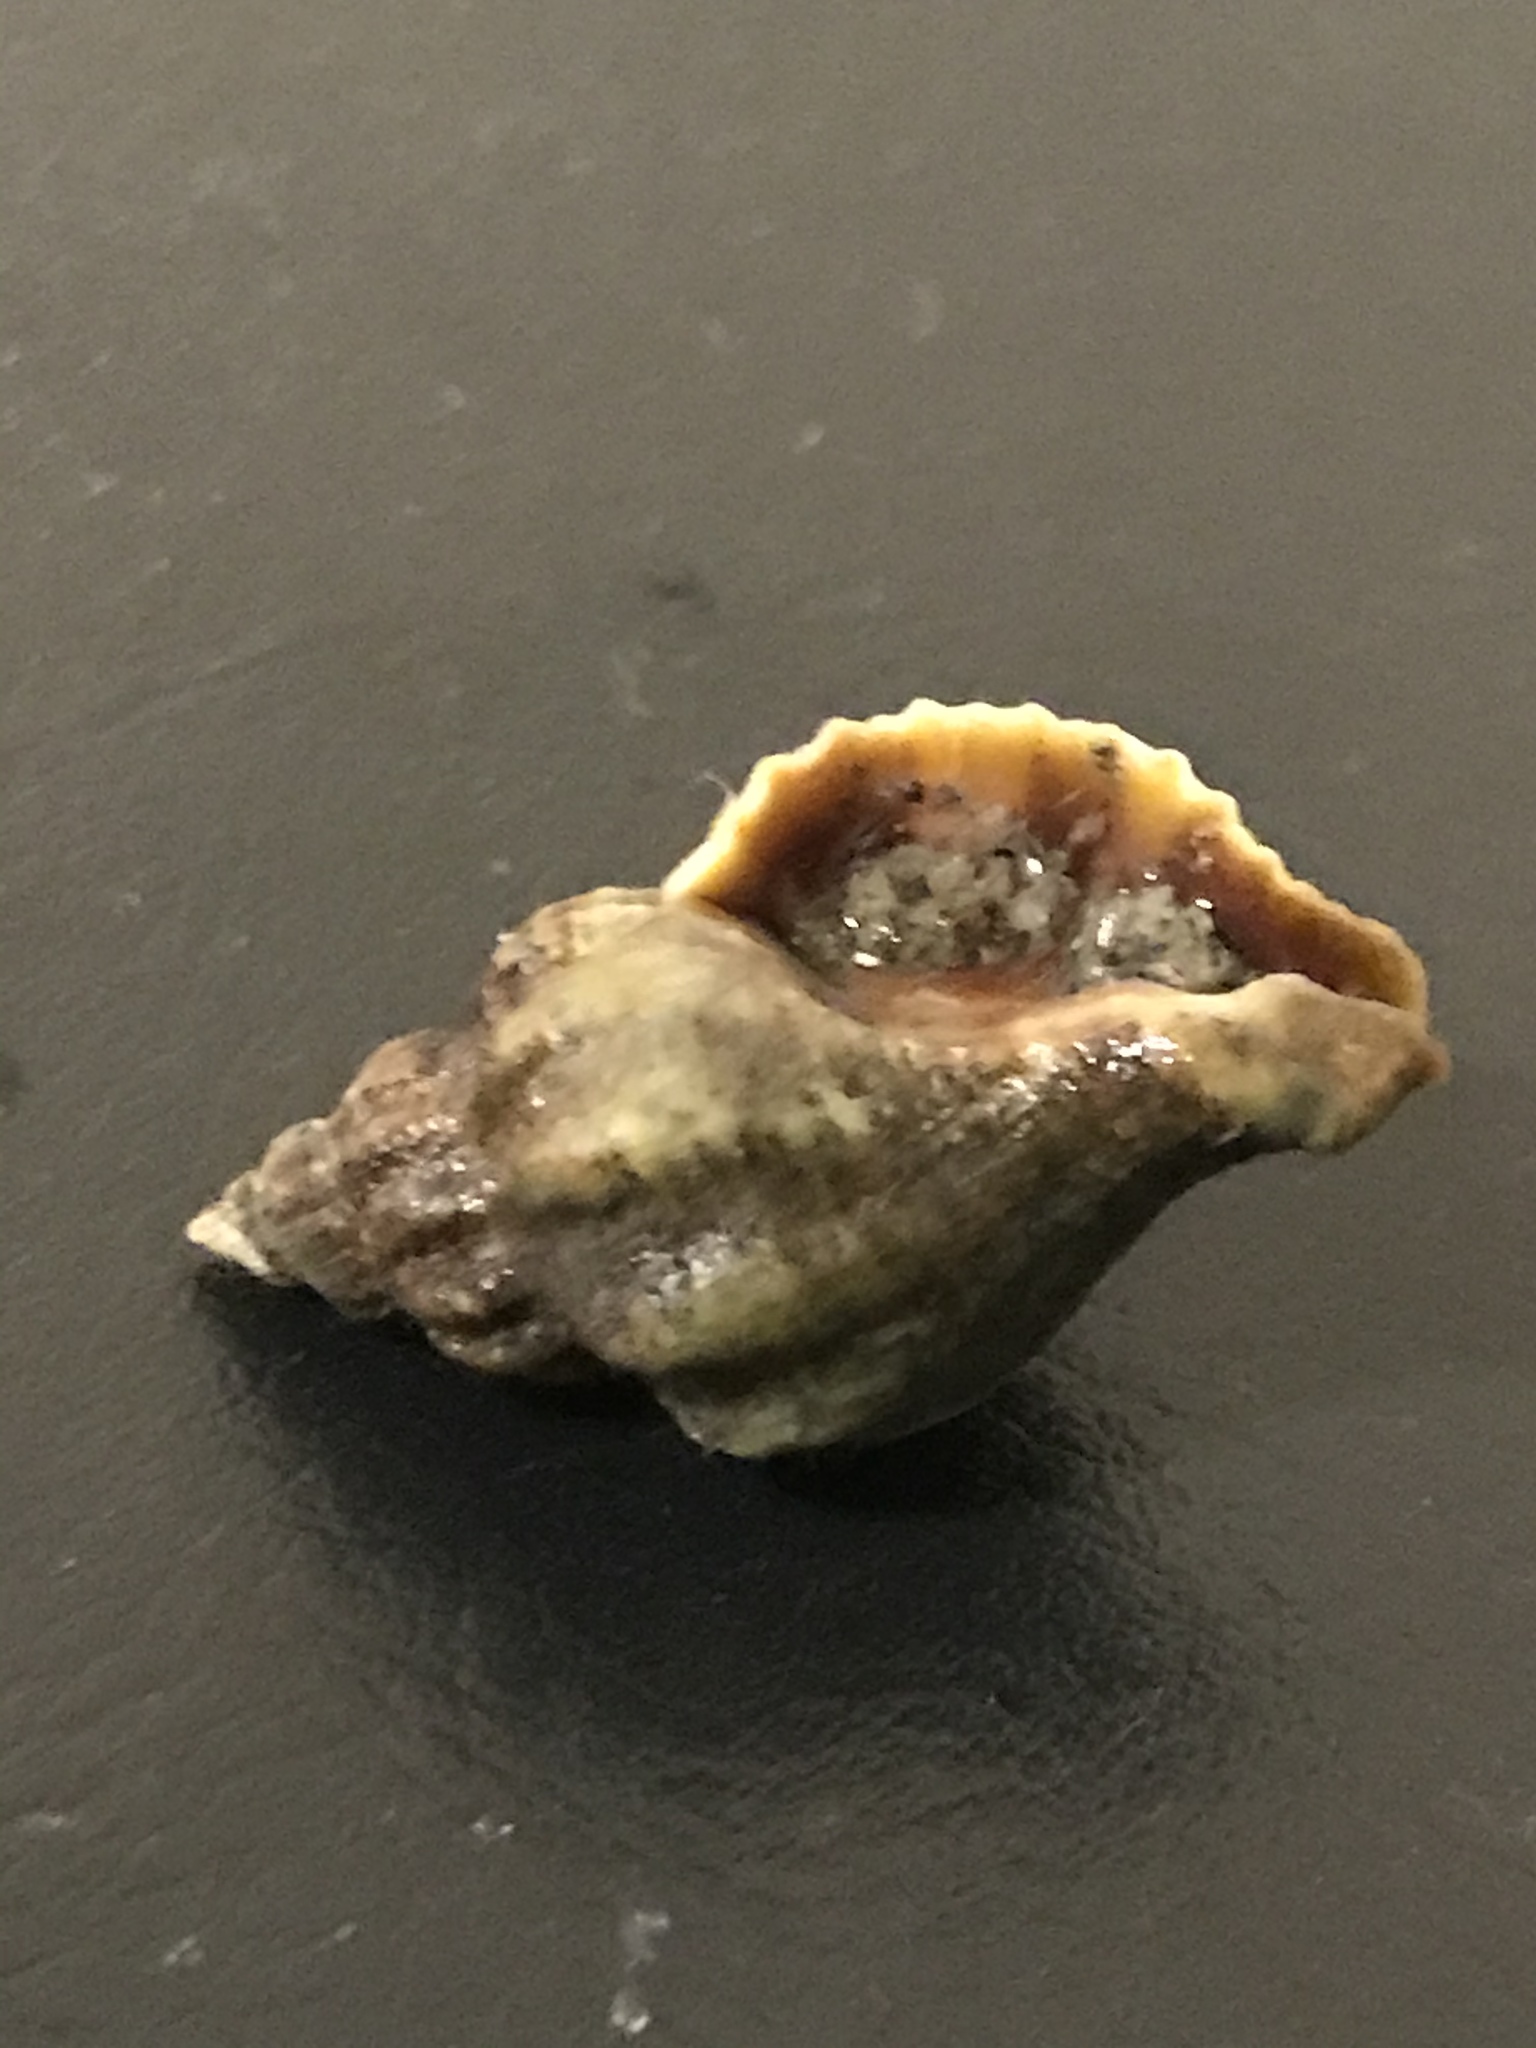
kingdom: Animalia
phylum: Mollusca
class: Gastropoda
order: Neogastropoda
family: Muricidae
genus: Urosalpinx
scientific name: Urosalpinx cinerea
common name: American sting winkle
